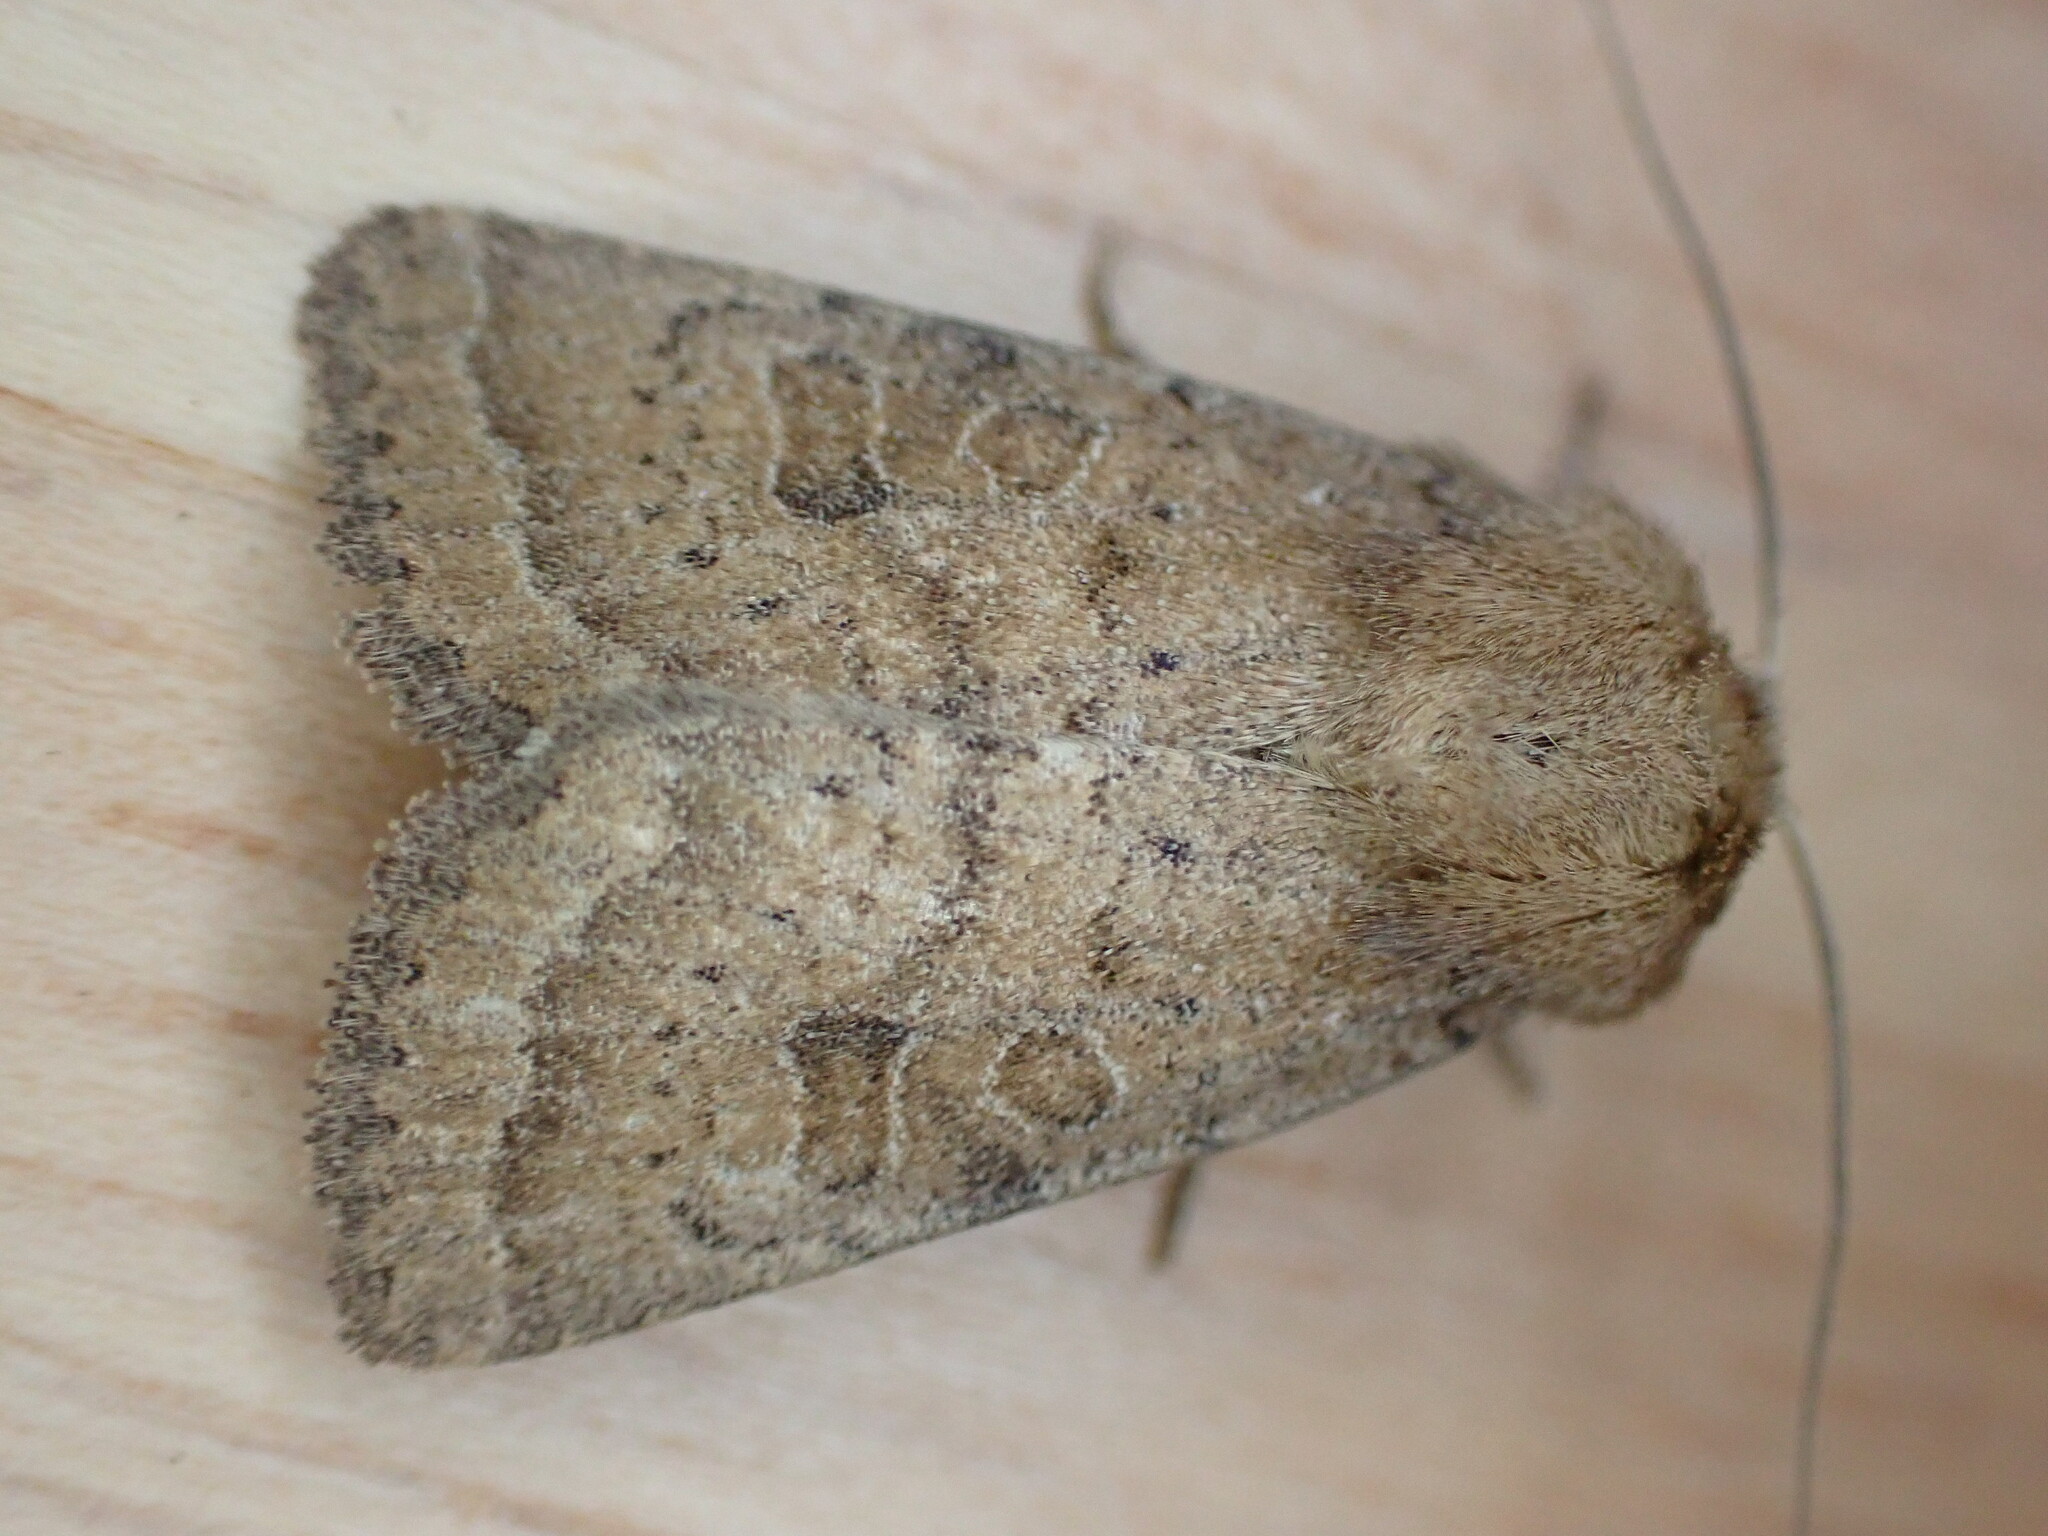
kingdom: Animalia
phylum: Arthropoda
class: Insecta
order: Lepidoptera
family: Noctuidae
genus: Hoplodrina
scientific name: Hoplodrina octogenaria
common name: Uncertain
